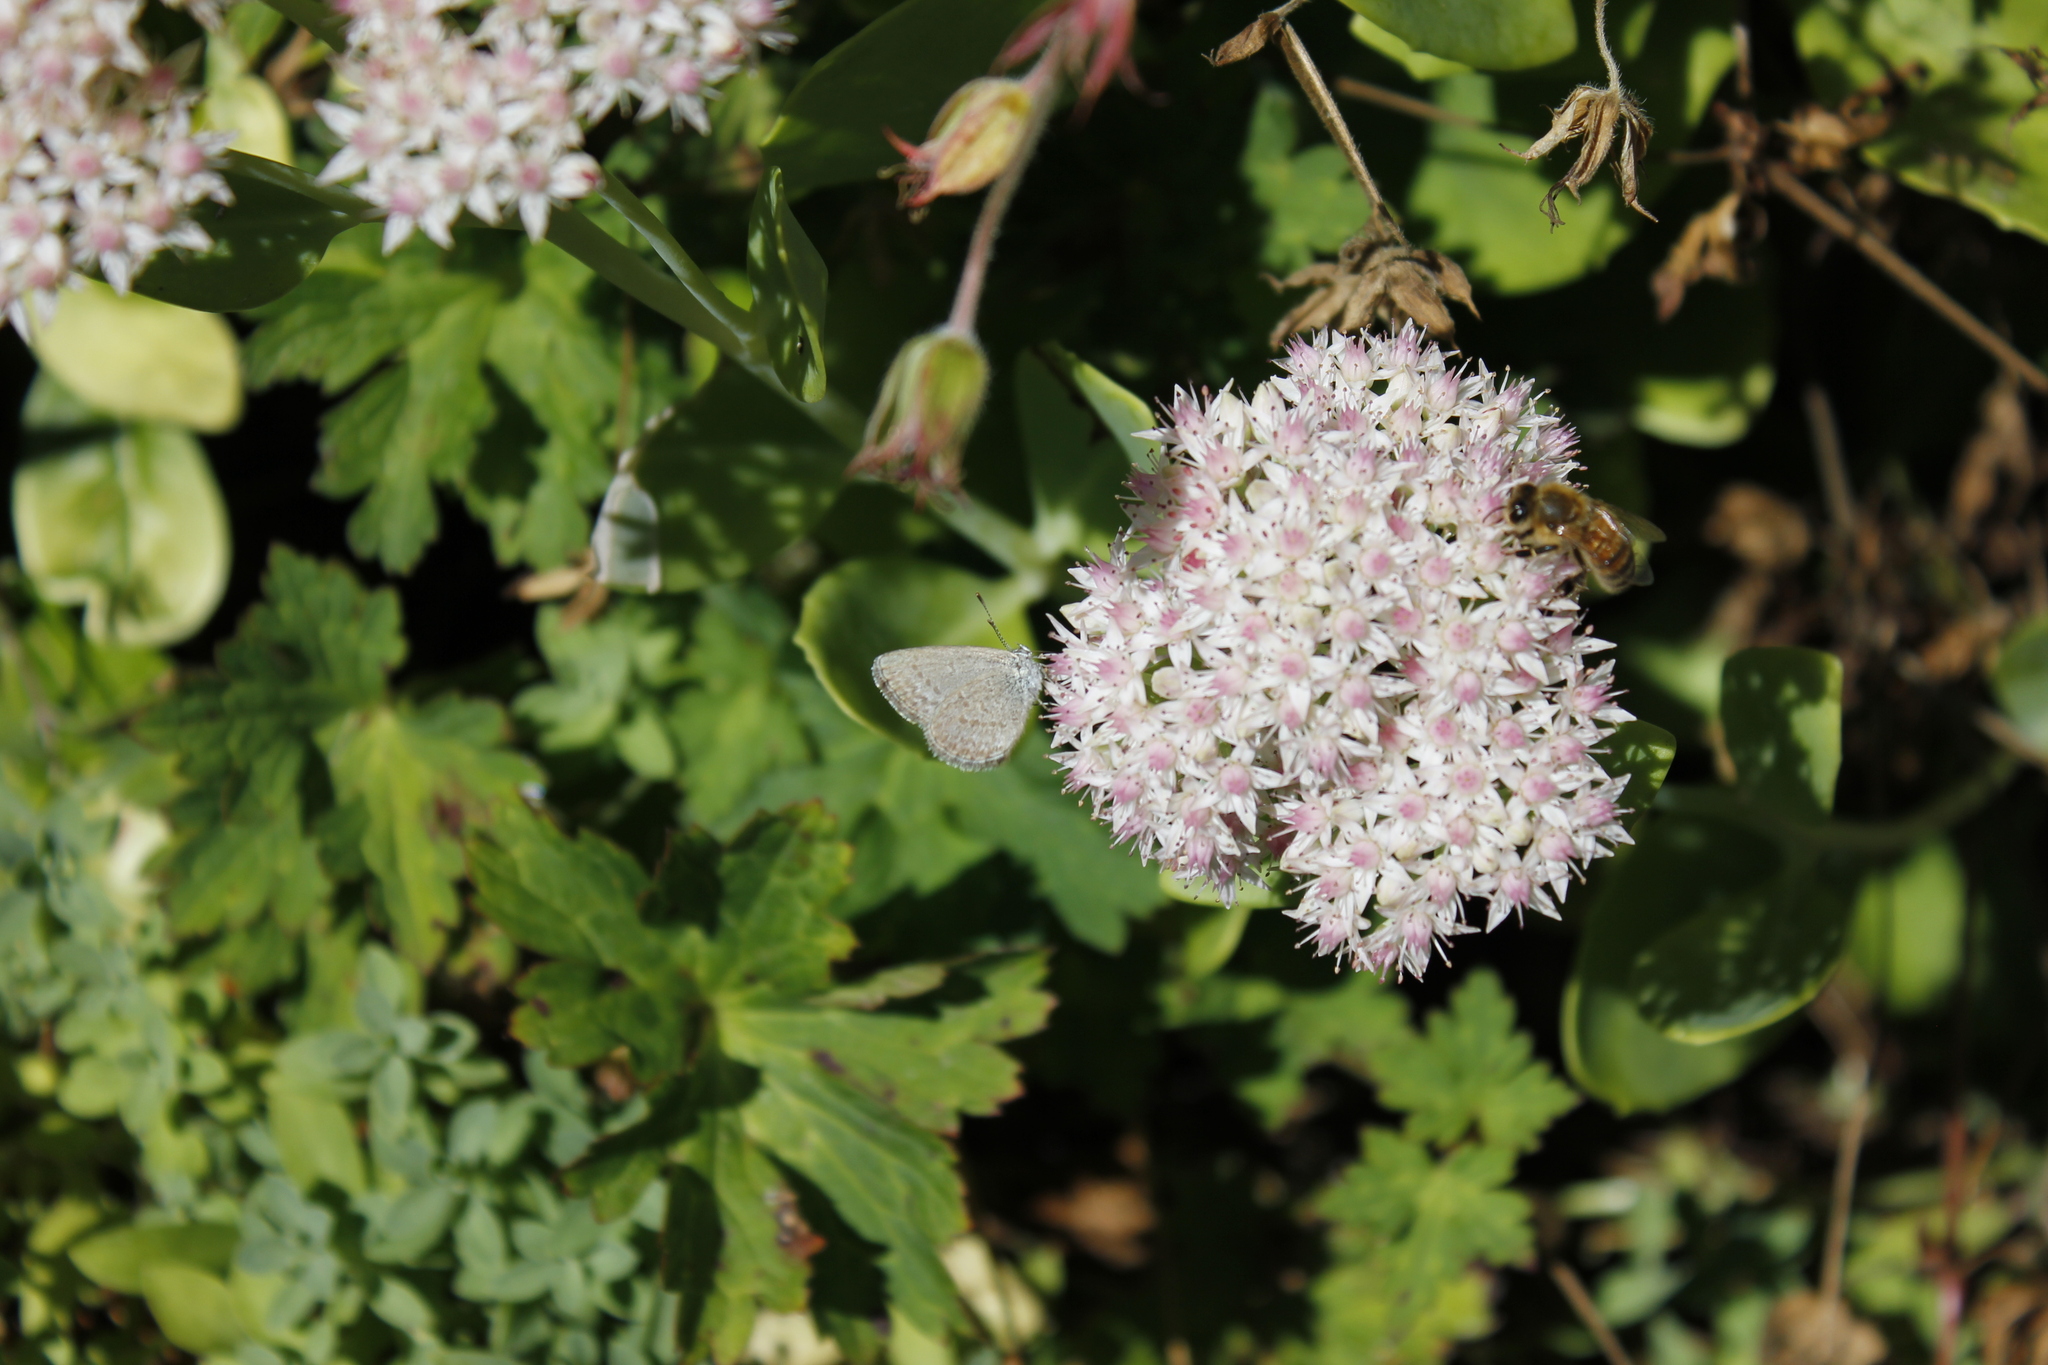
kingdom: Animalia
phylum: Arthropoda
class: Insecta
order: Lepidoptera
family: Lycaenidae
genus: Zizina
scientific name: Zizina otis
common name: Lesser grass blue
